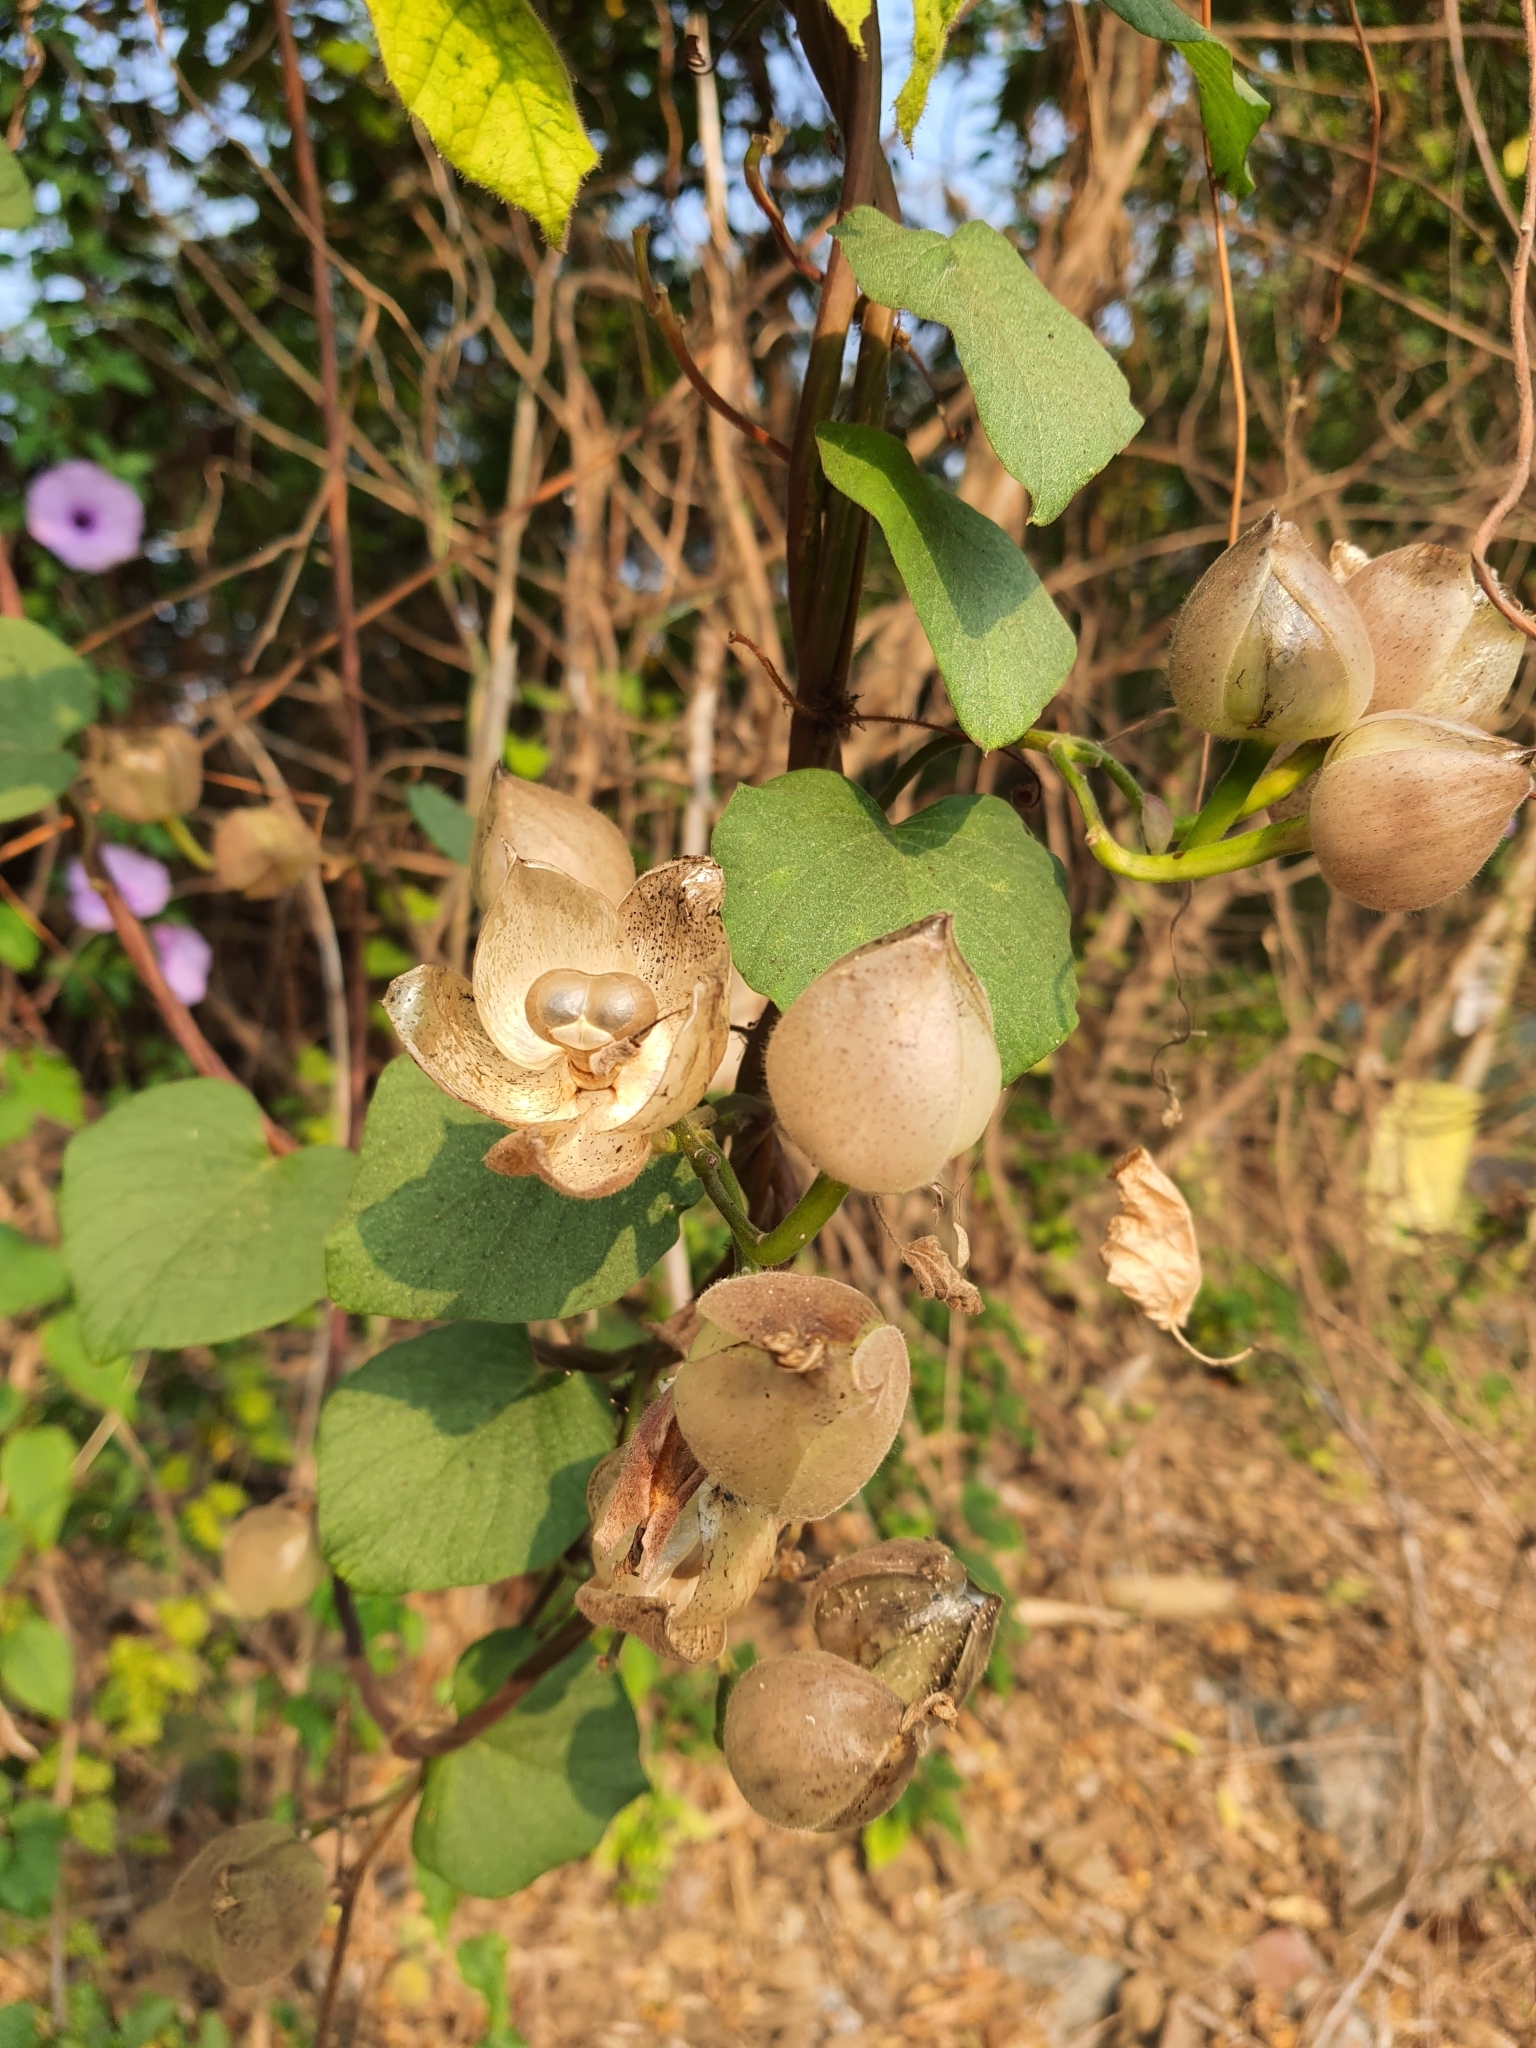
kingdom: Plantae
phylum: Tracheophyta
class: Magnoliopsida
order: Solanales
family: Convolvulaceae
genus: Operculina
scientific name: Operculina turpethum
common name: Transparent wood-rose
